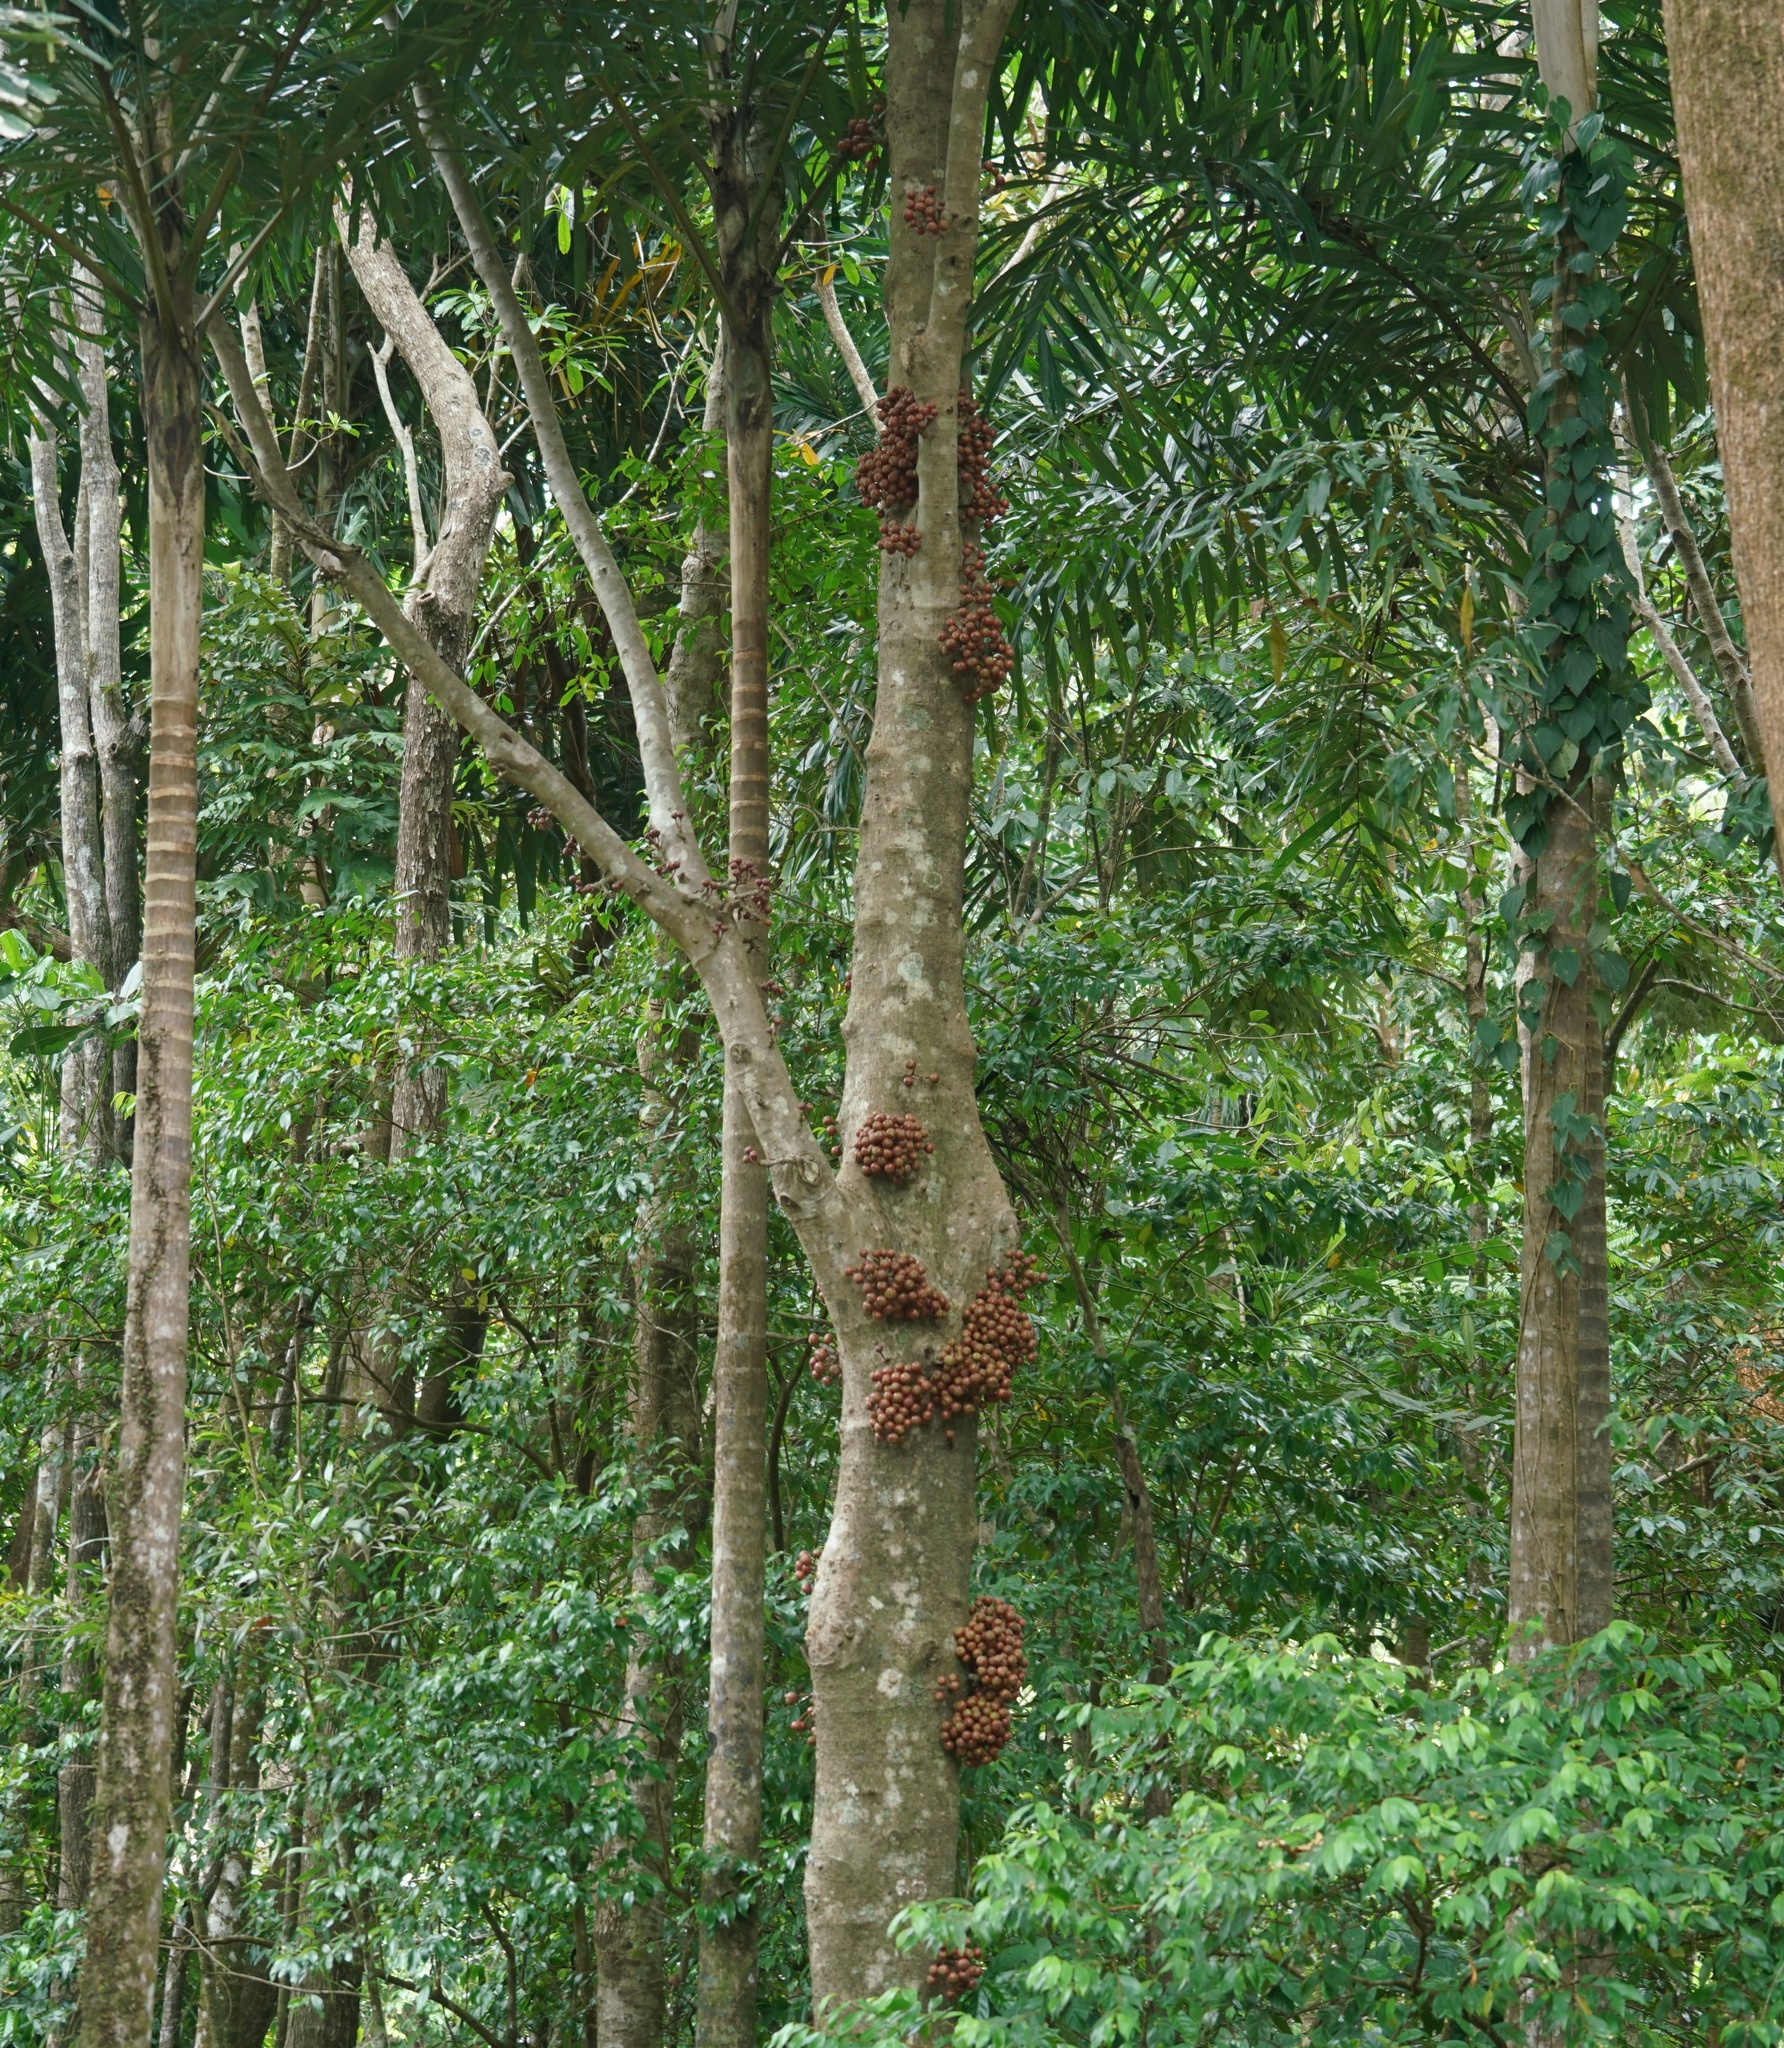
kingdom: Plantae
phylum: Tracheophyta
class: Magnoliopsida
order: Rosales
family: Moraceae
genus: Ficus
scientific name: Ficus variegata
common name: Variegated fig
